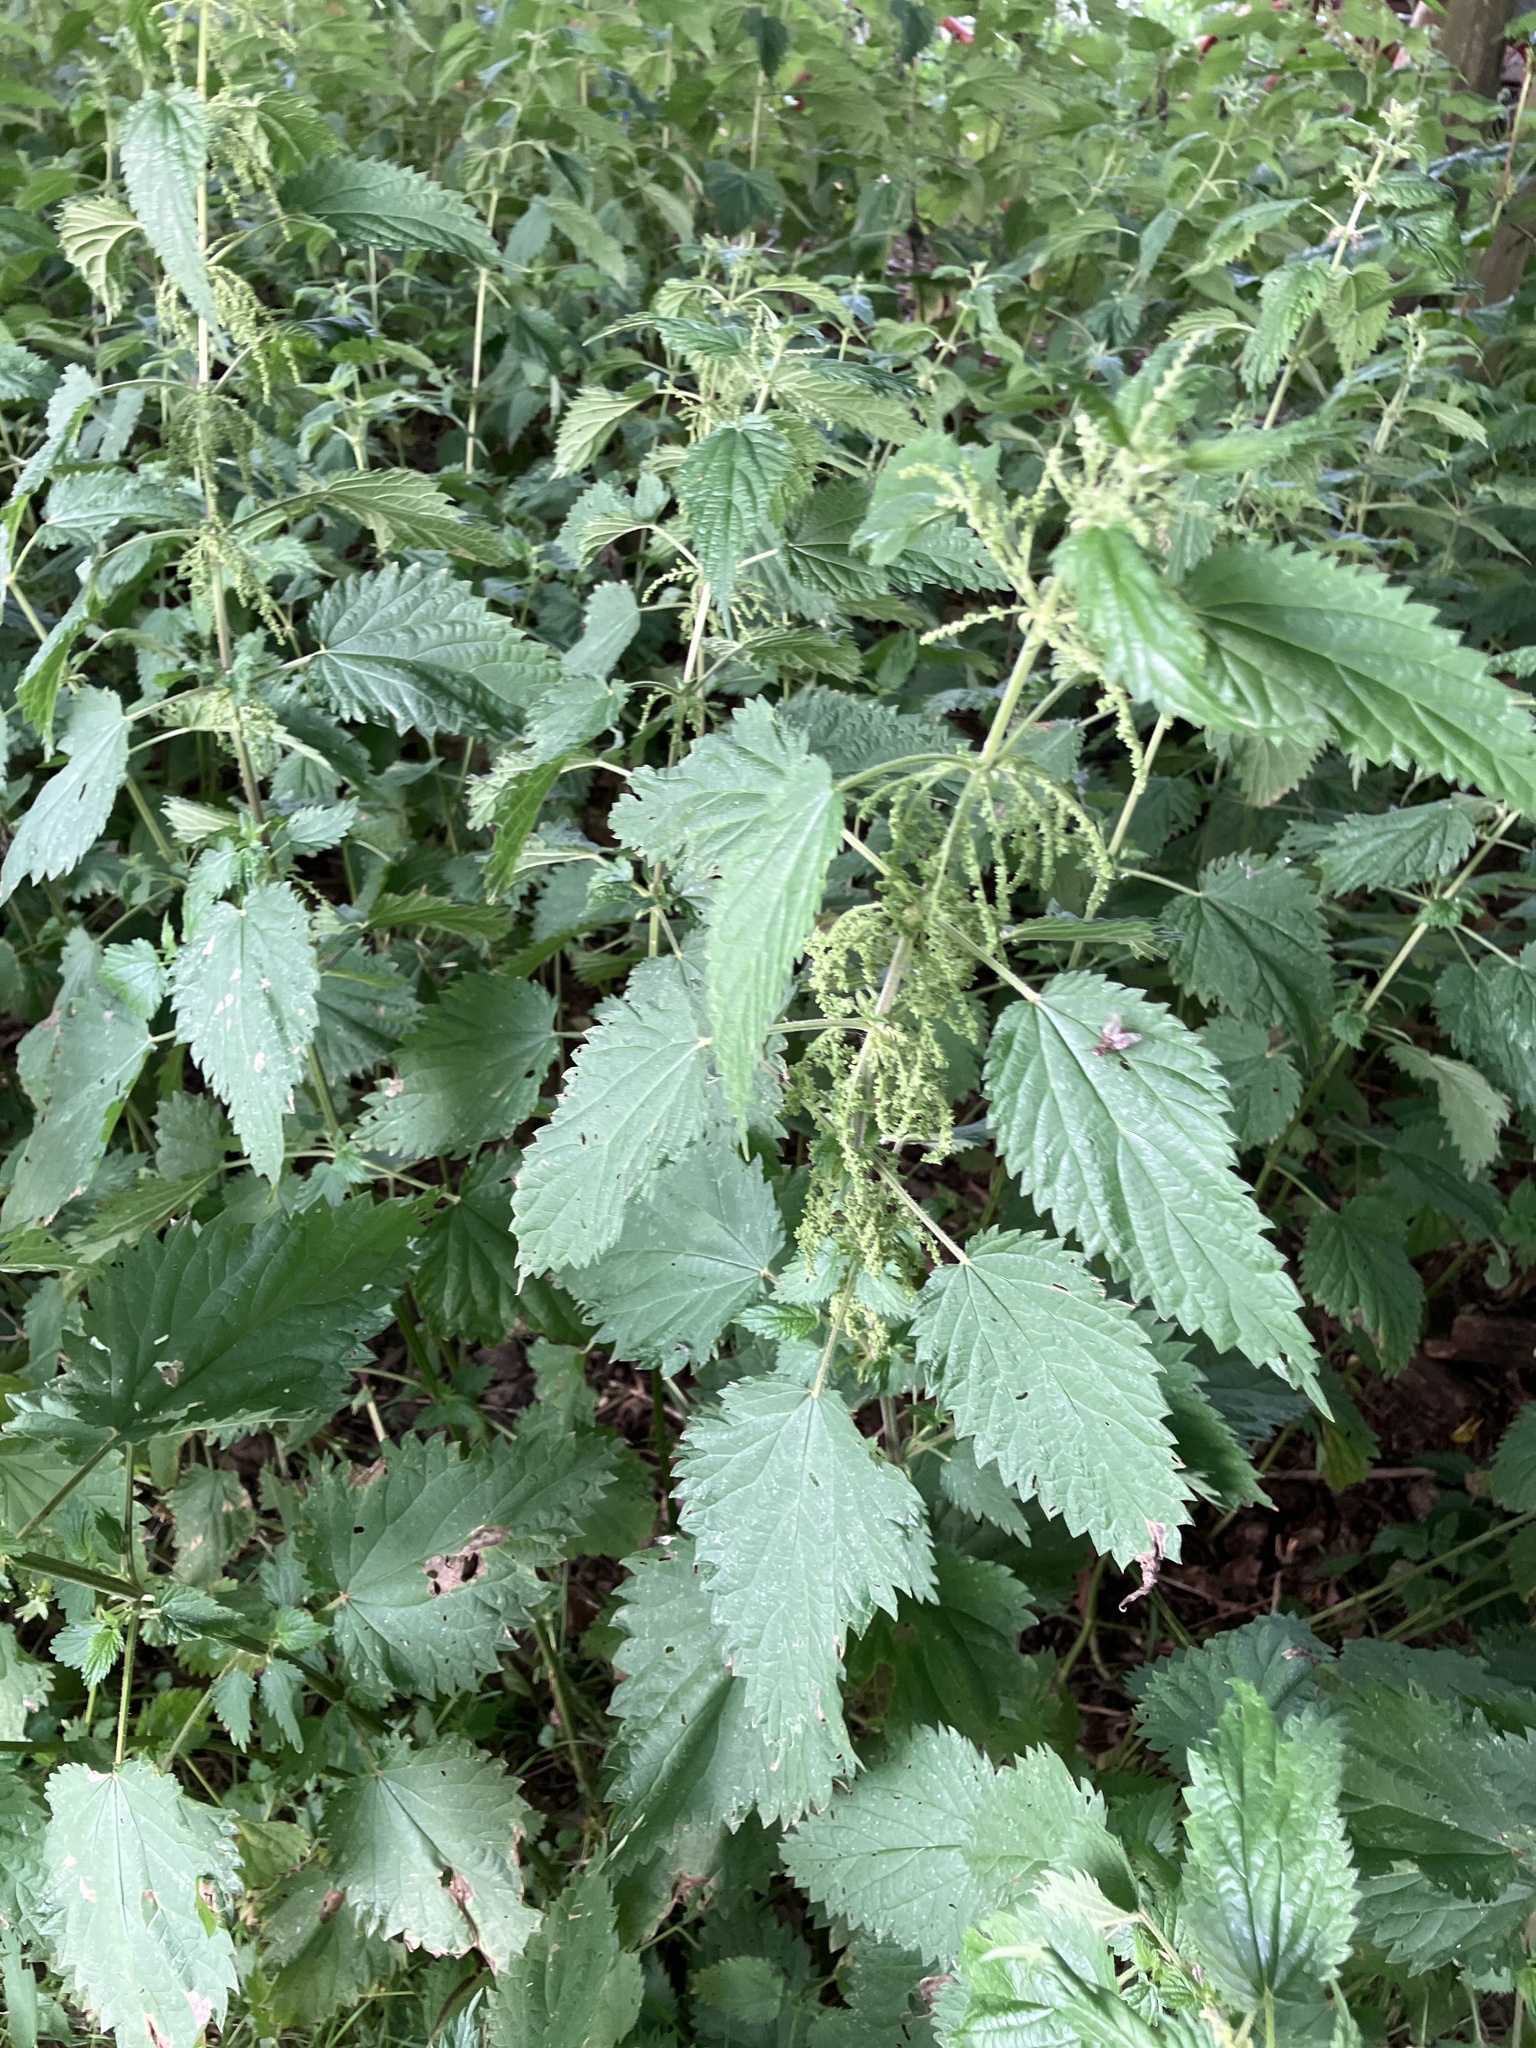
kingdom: Plantae
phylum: Tracheophyta
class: Magnoliopsida
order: Rosales
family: Urticaceae
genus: Urtica
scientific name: Urtica dioica
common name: Common nettle
